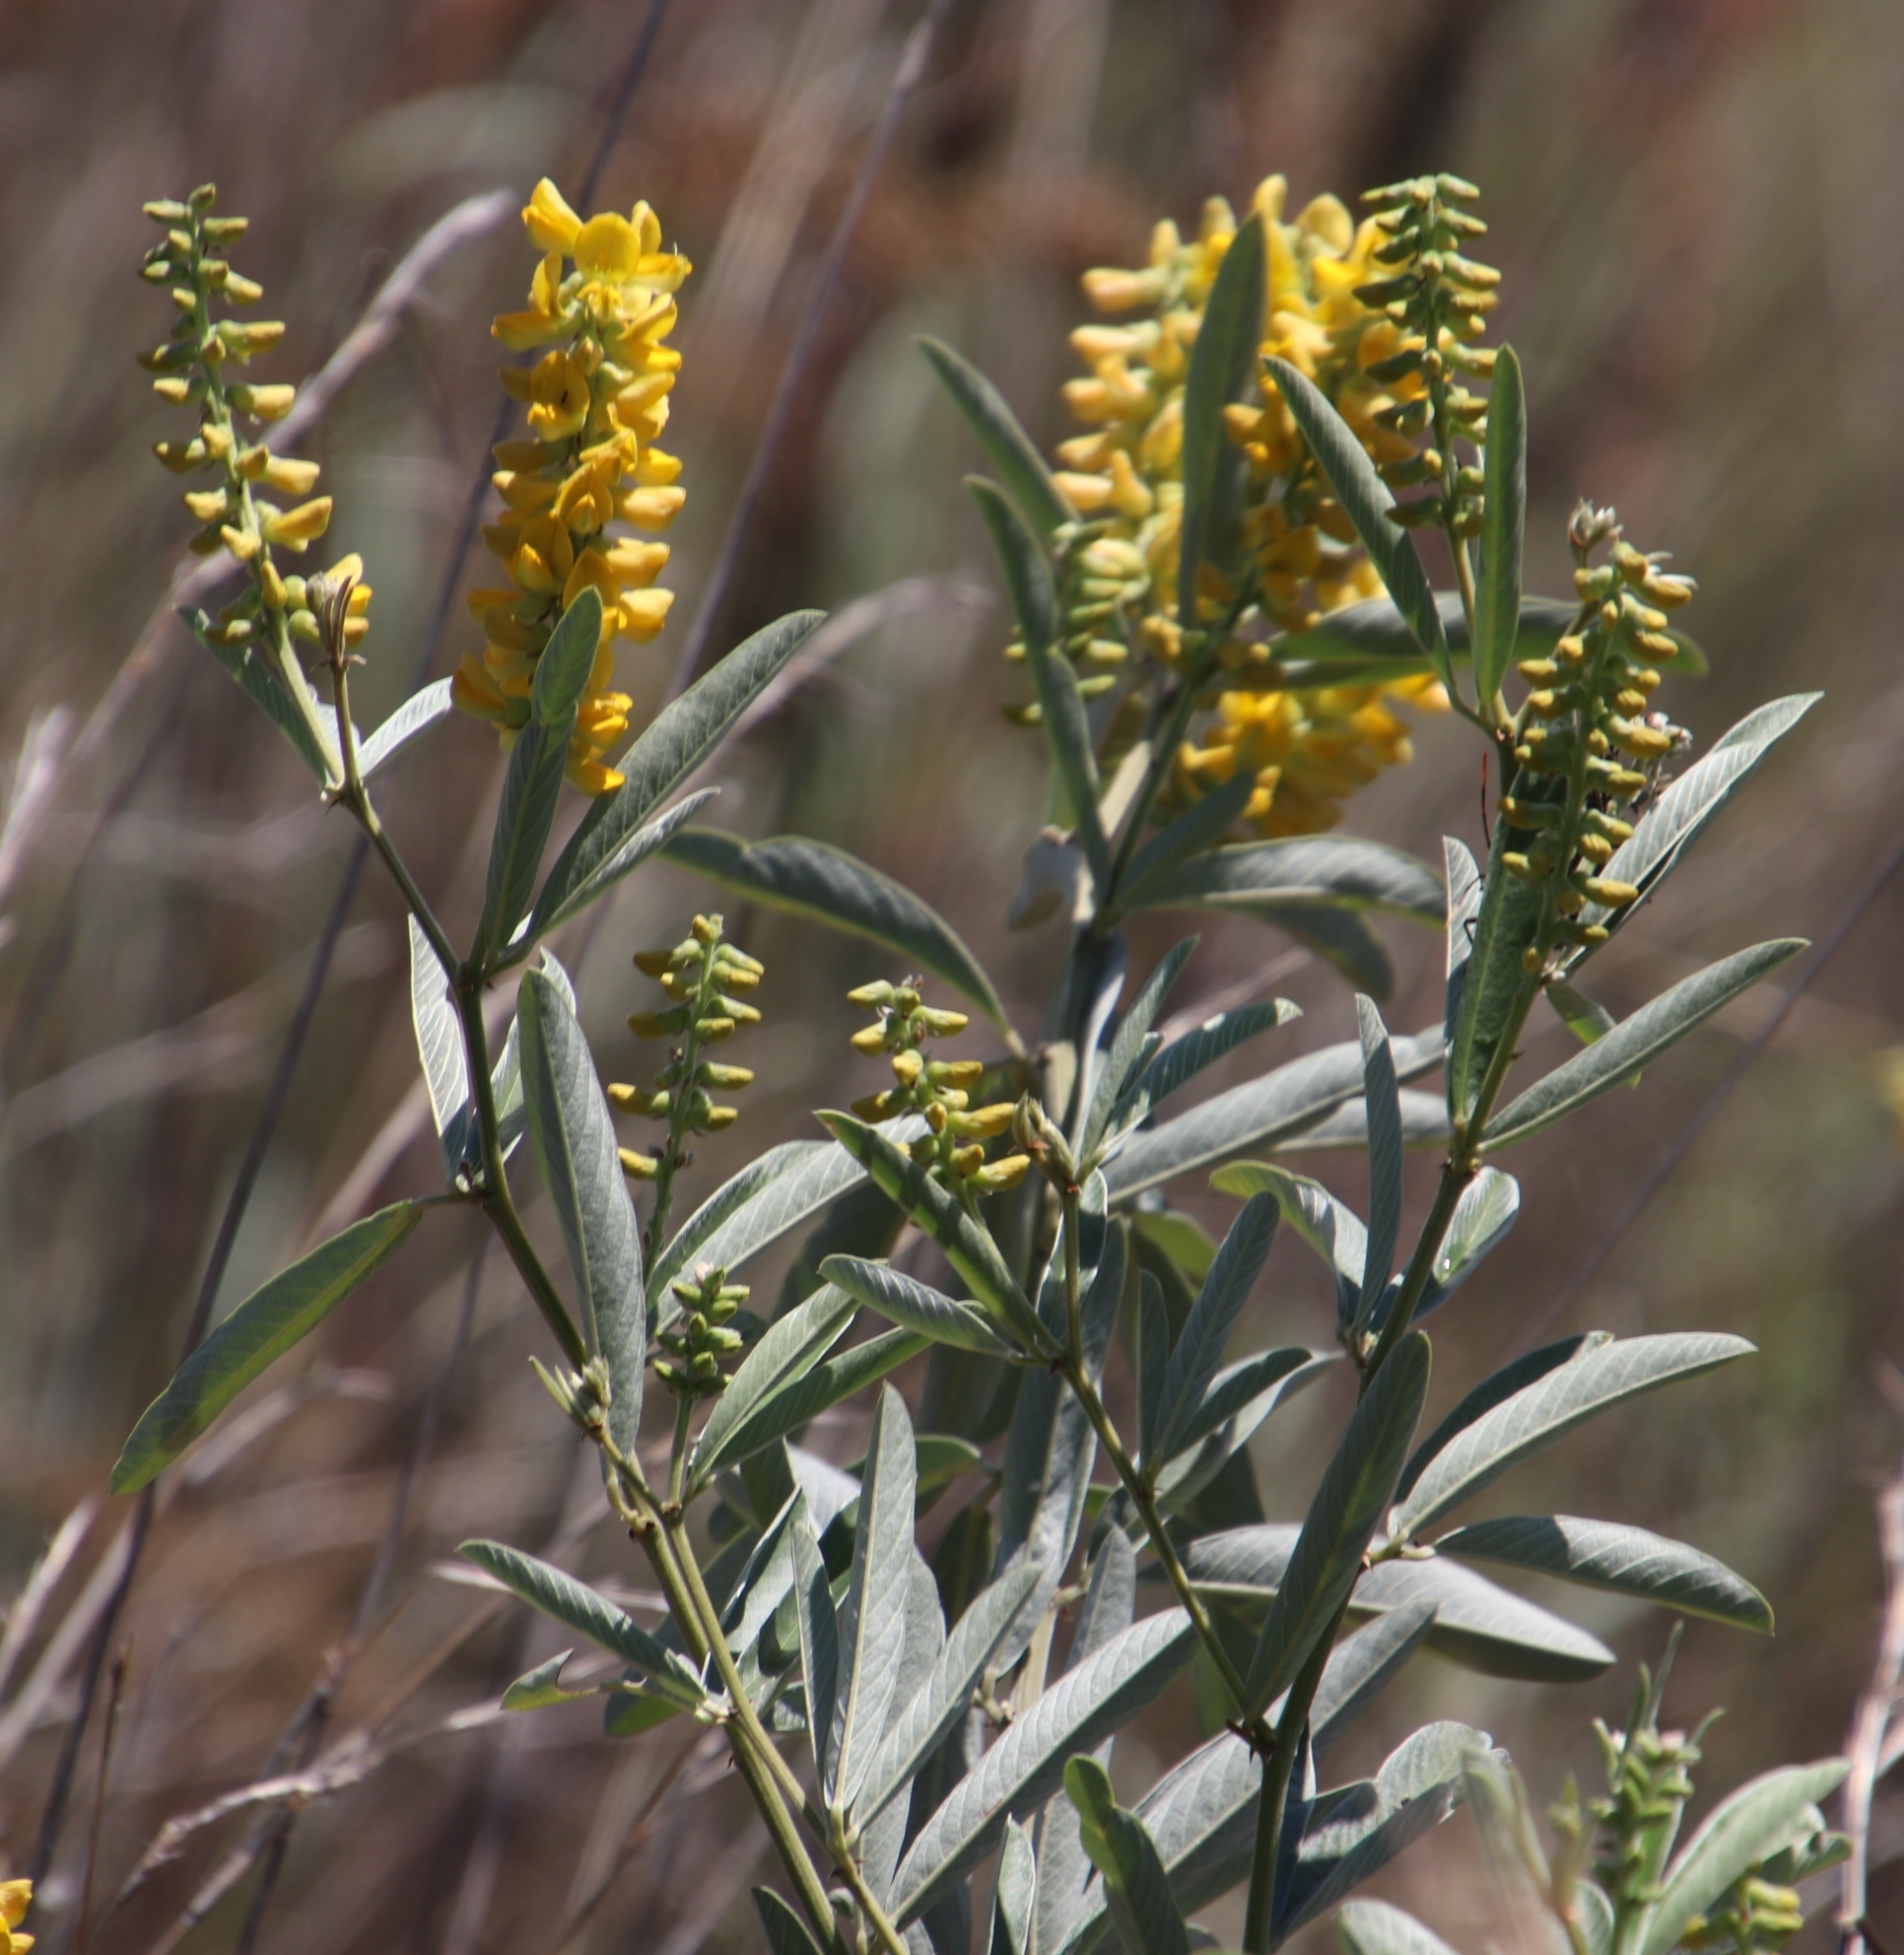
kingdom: Plantae
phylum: Tracheophyta
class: Magnoliopsida
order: Fabales
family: Fabaceae
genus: Eriosema
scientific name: Eriosema psoraleoides
